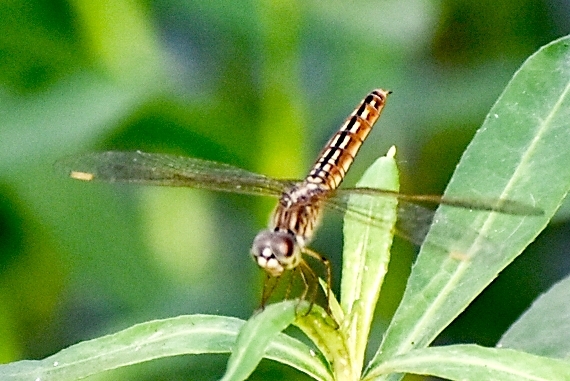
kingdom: Animalia
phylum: Arthropoda
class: Insecta
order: Odonata
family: Libellulidae
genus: Brachythemis
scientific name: Brachythemis contaminata
